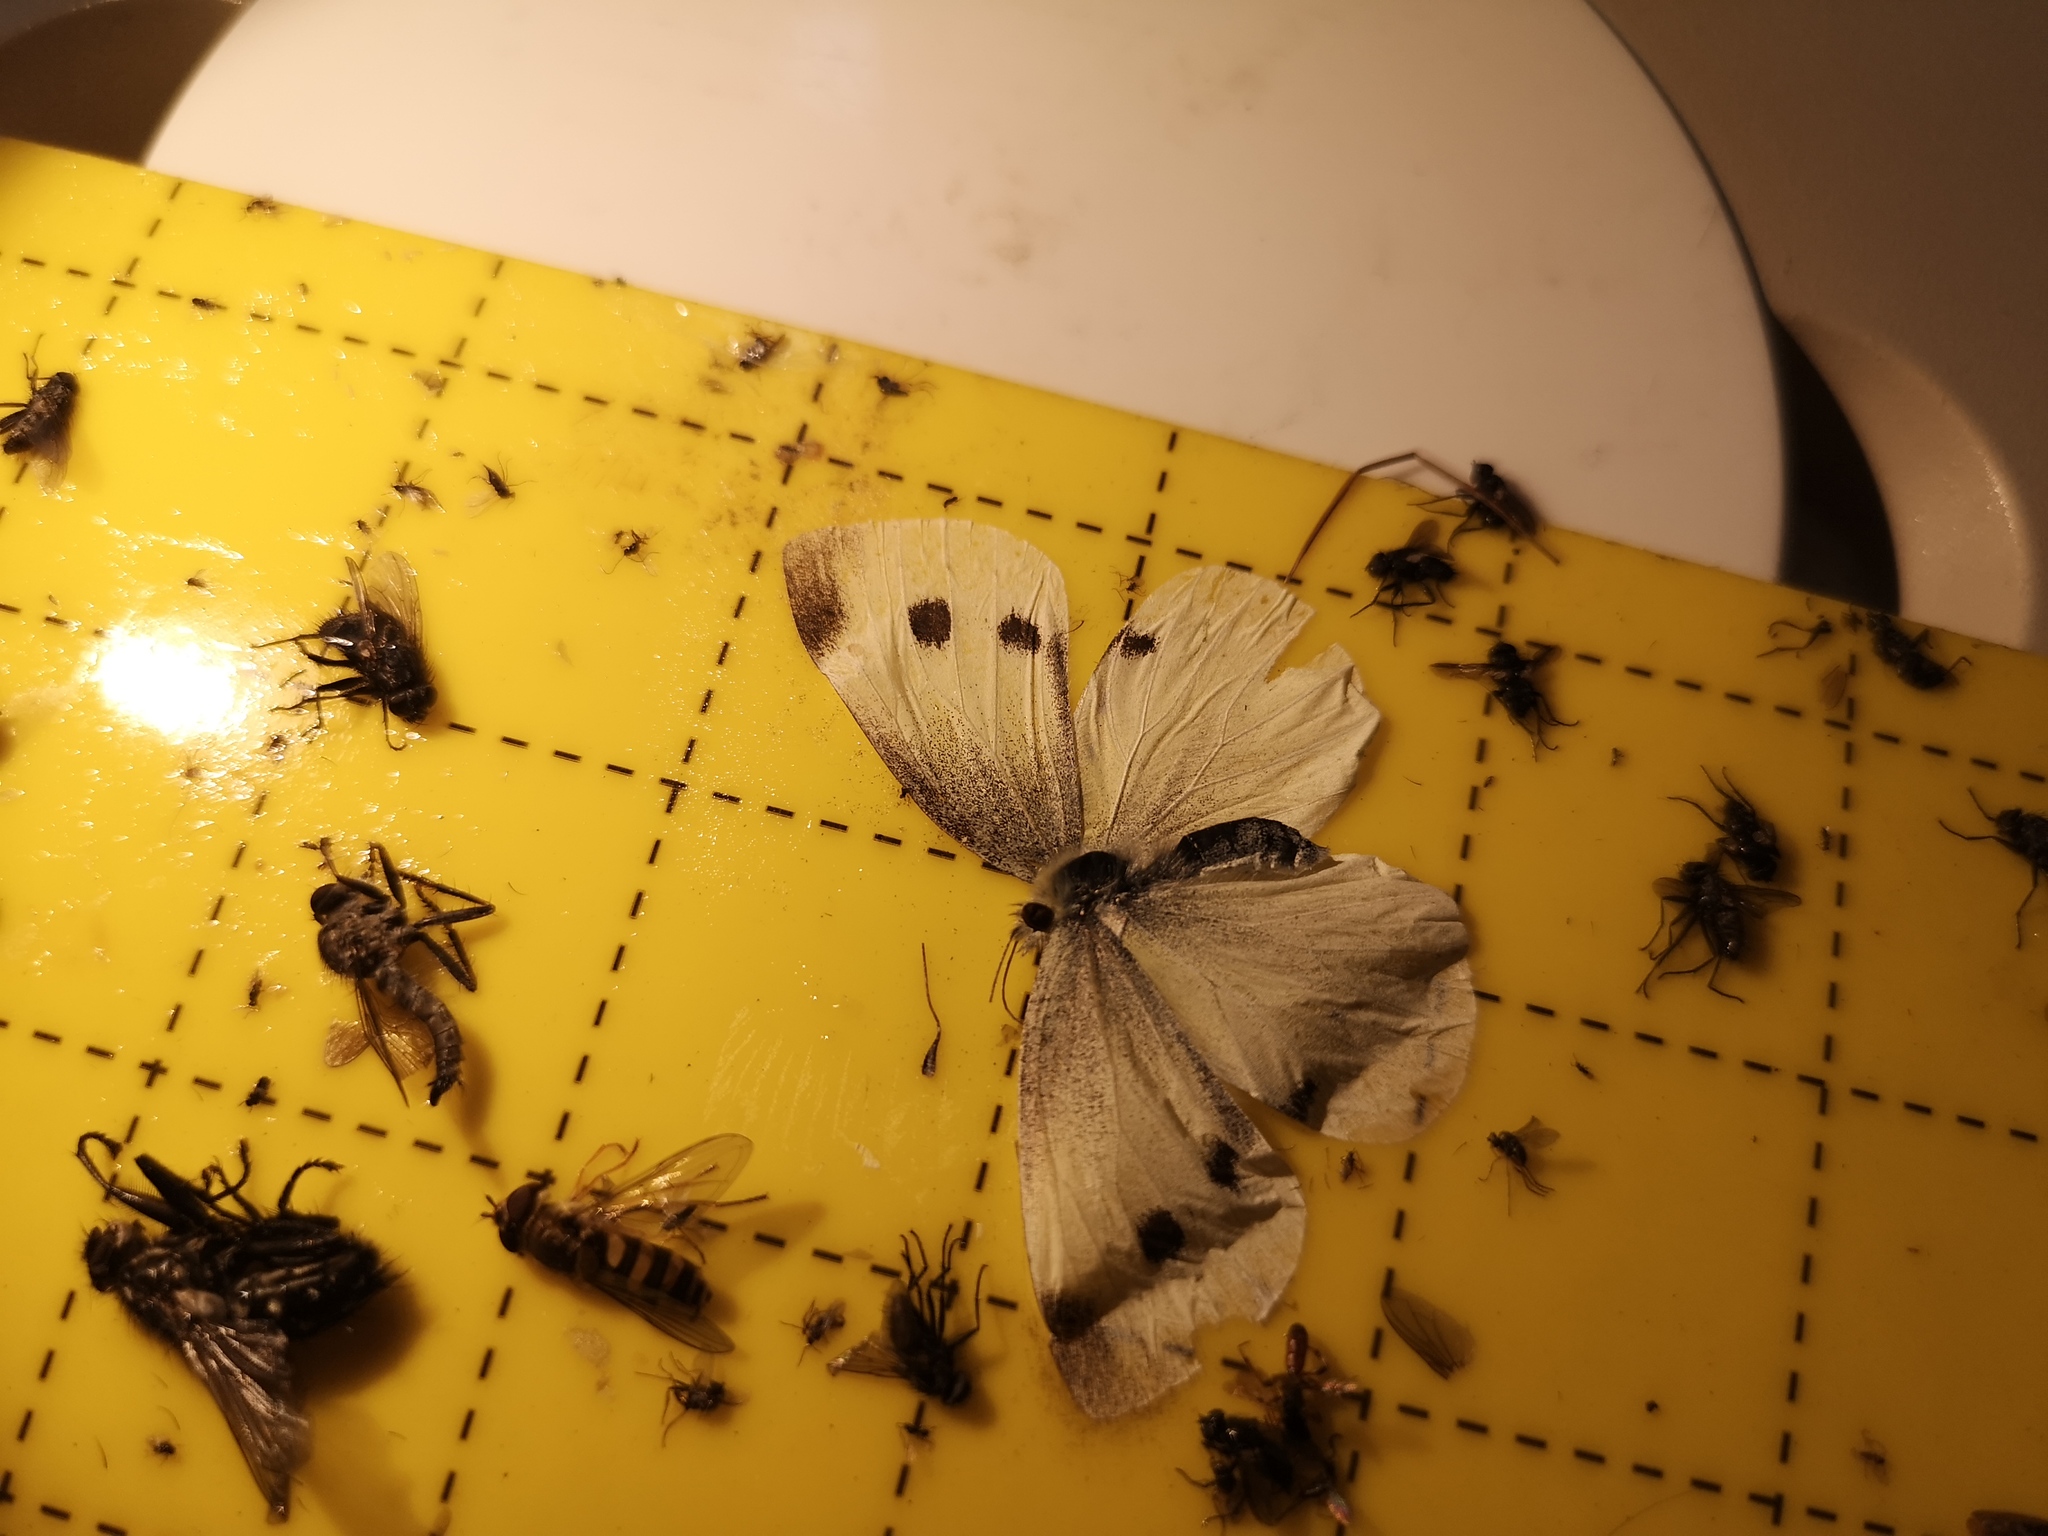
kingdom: Animalia
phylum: Arthropoda
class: Insecta
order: Lepidoptera
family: Pieridae
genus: Pieris
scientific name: Pieris rapae
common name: Small white
